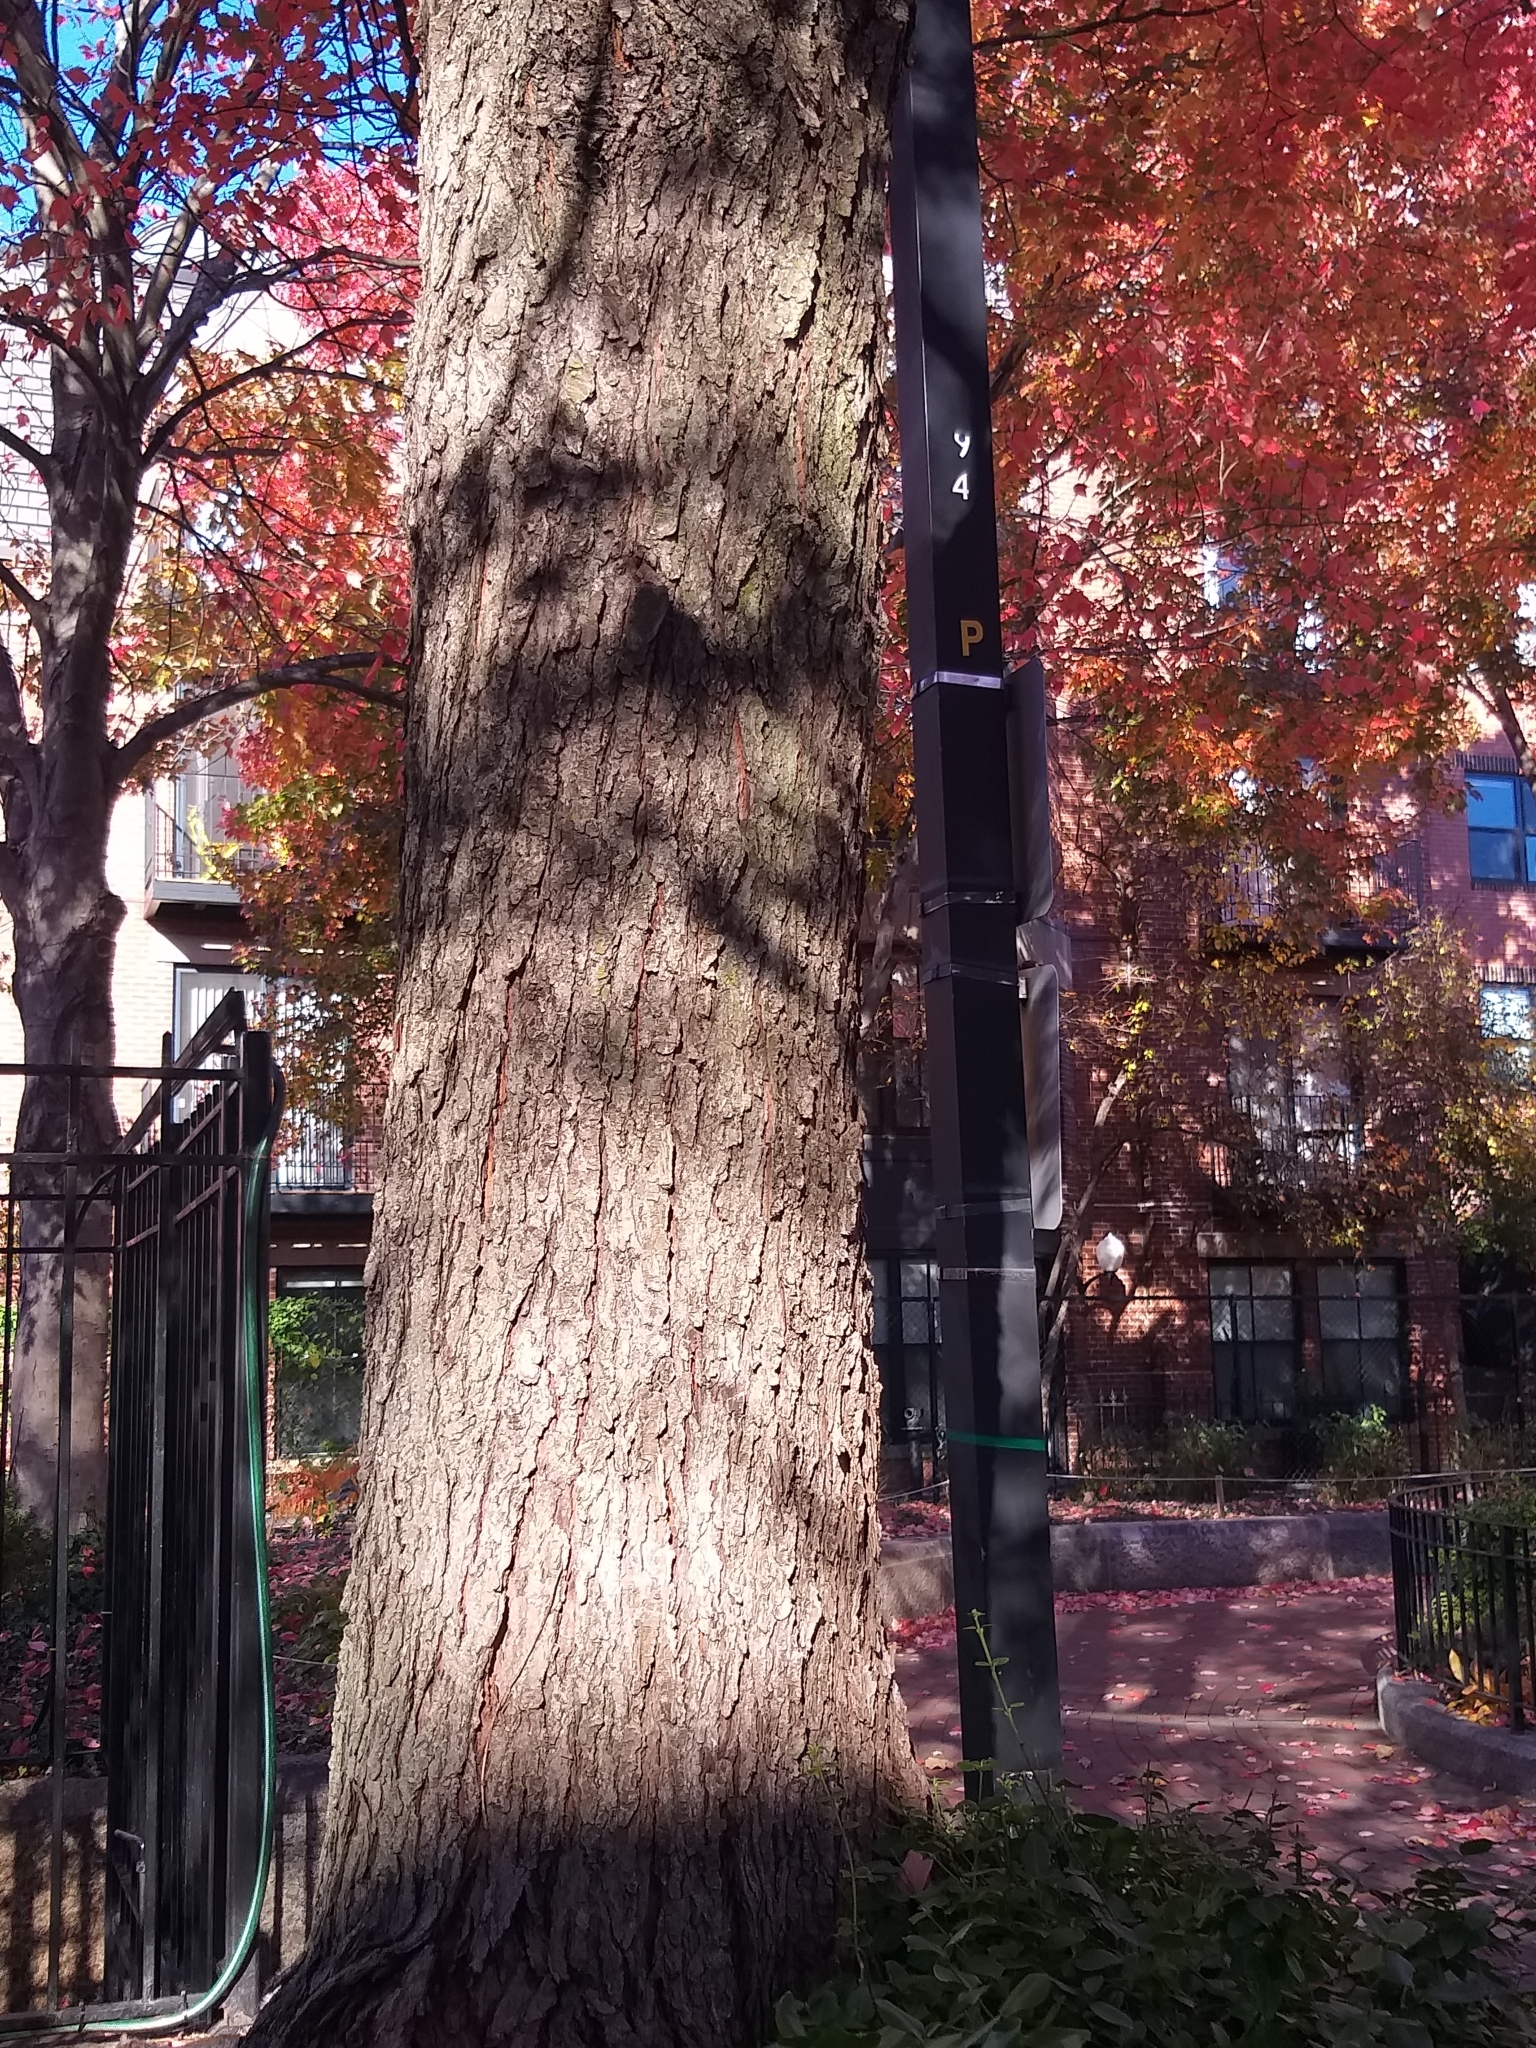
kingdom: Plantae
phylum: Tracheophyta
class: Magnoliopsida
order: Sapindales
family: Sapindaceae
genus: Acer
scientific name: Acer rubrum
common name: Red maple
